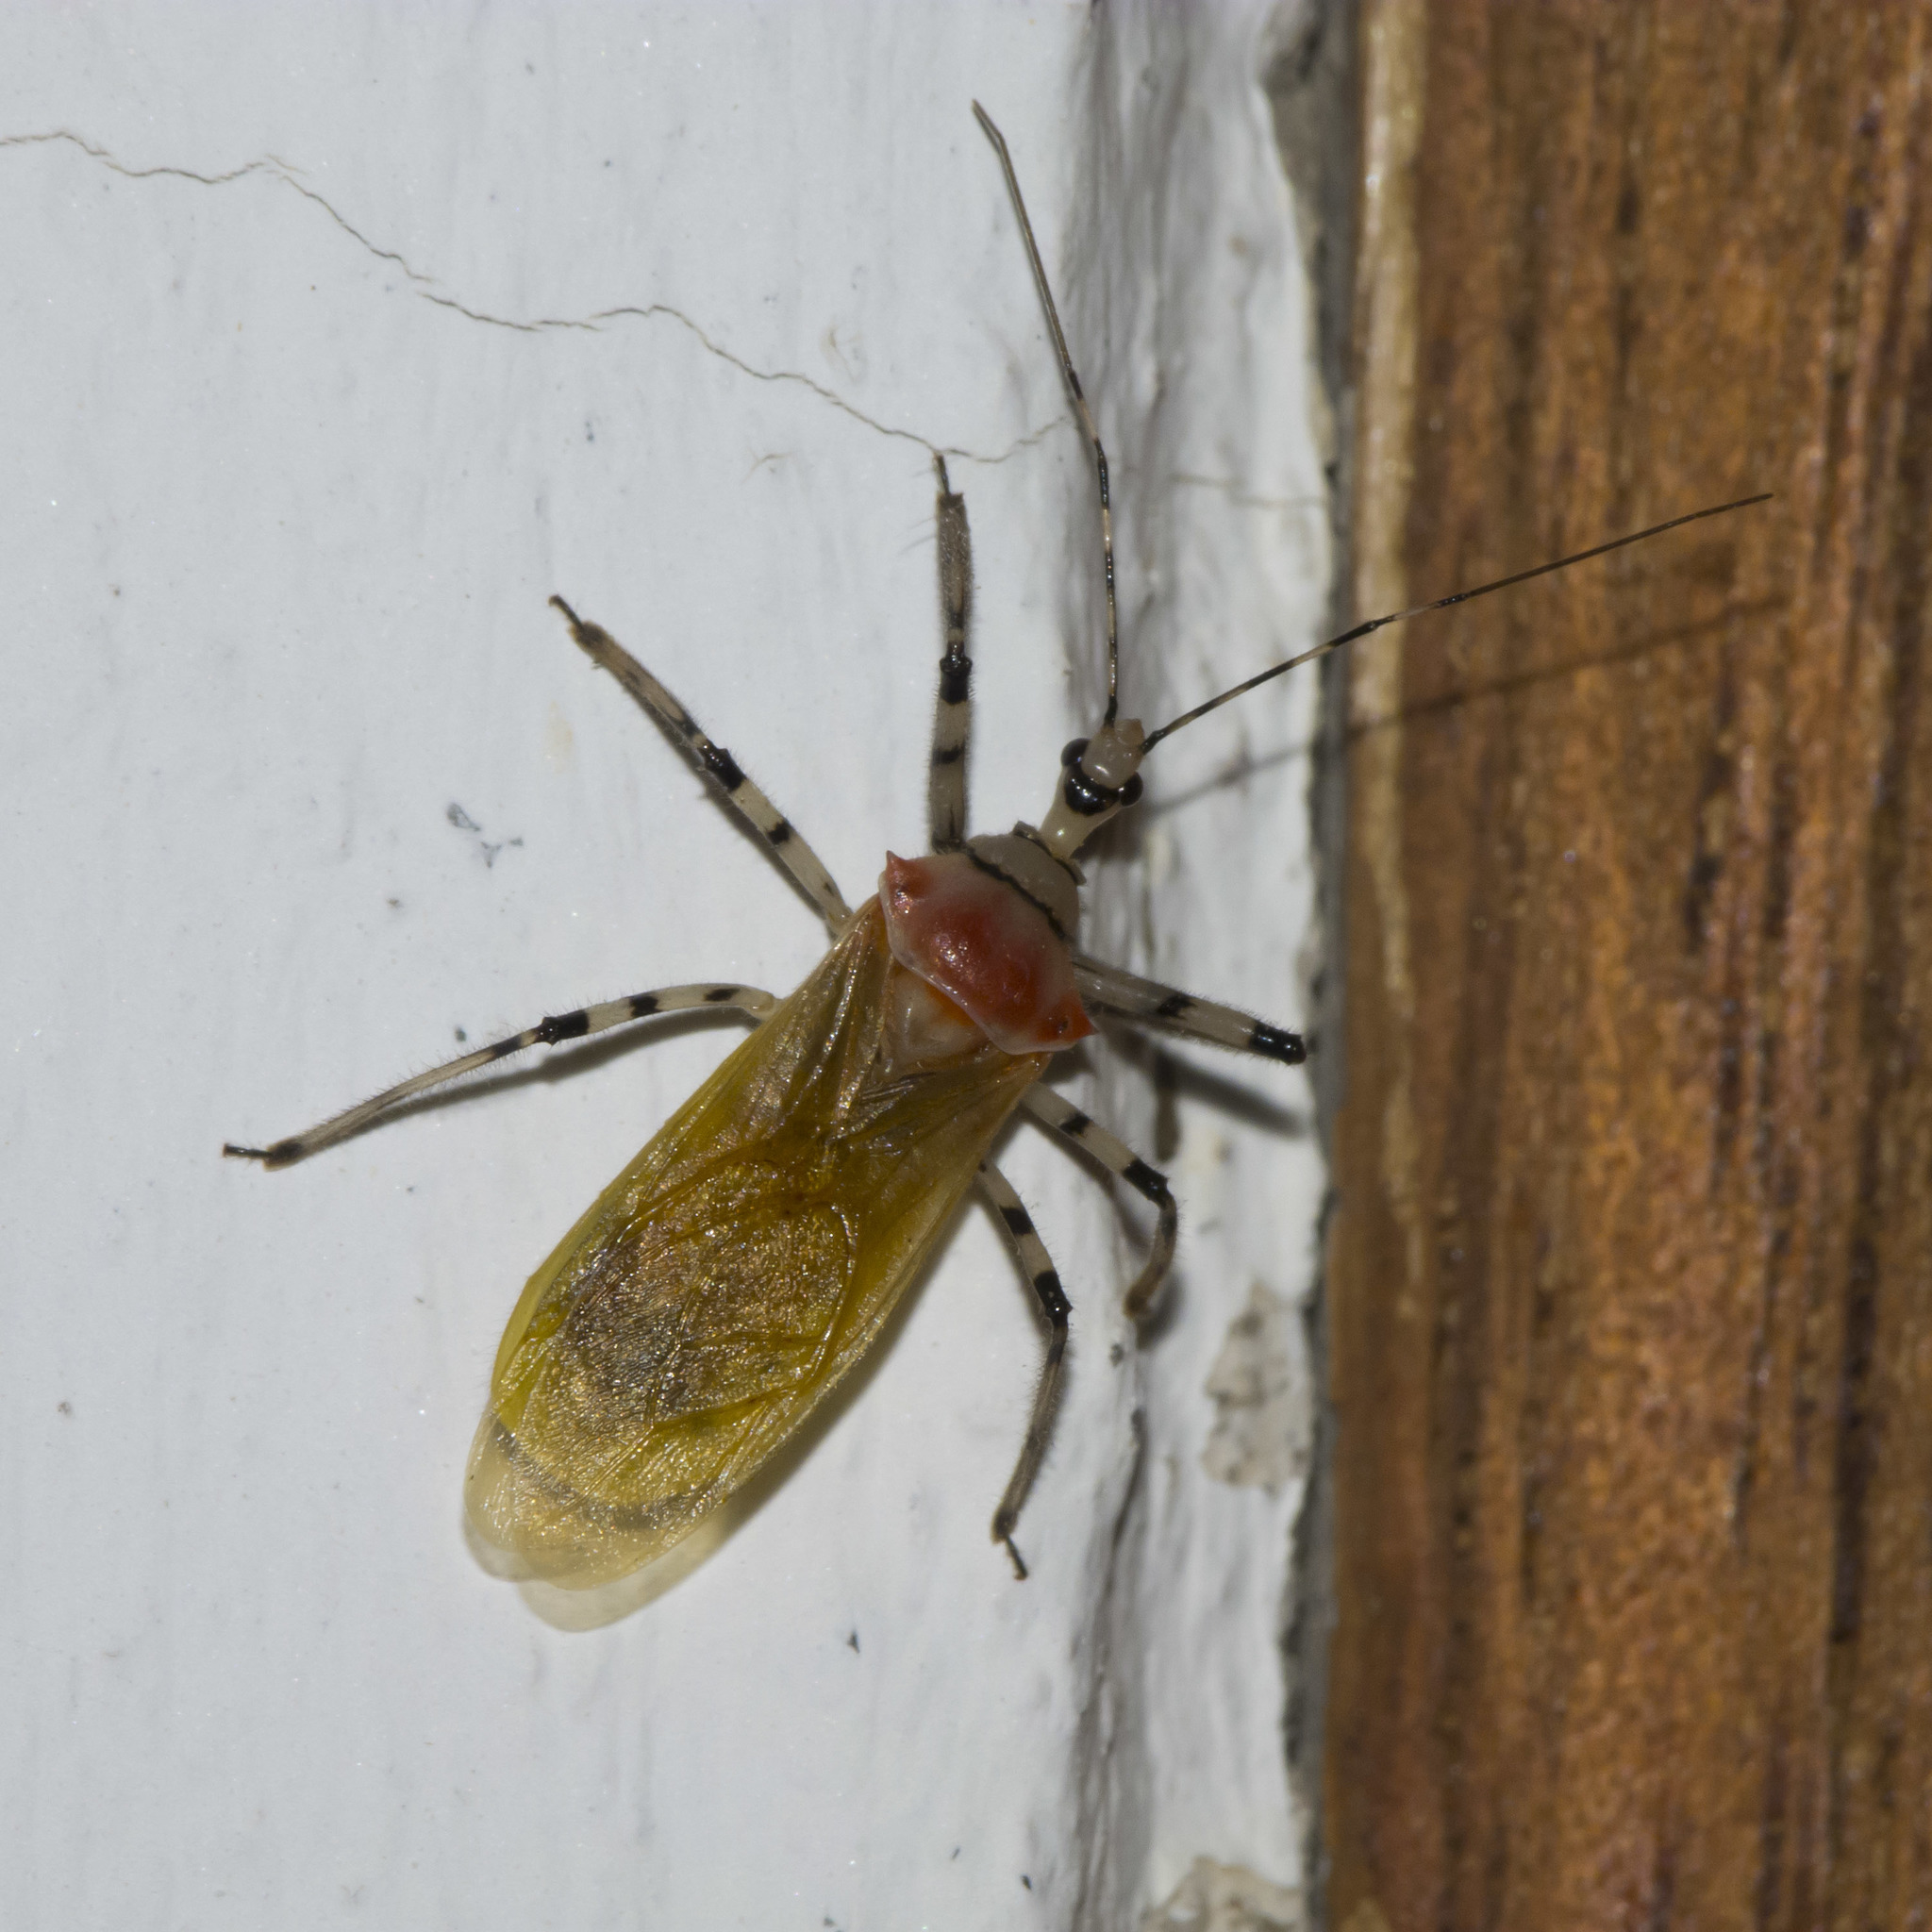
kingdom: Animalia
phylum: Arthropoda
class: Insecta
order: Hemiptera
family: Reduviidae
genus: Castolus
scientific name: Castolus lineatus
